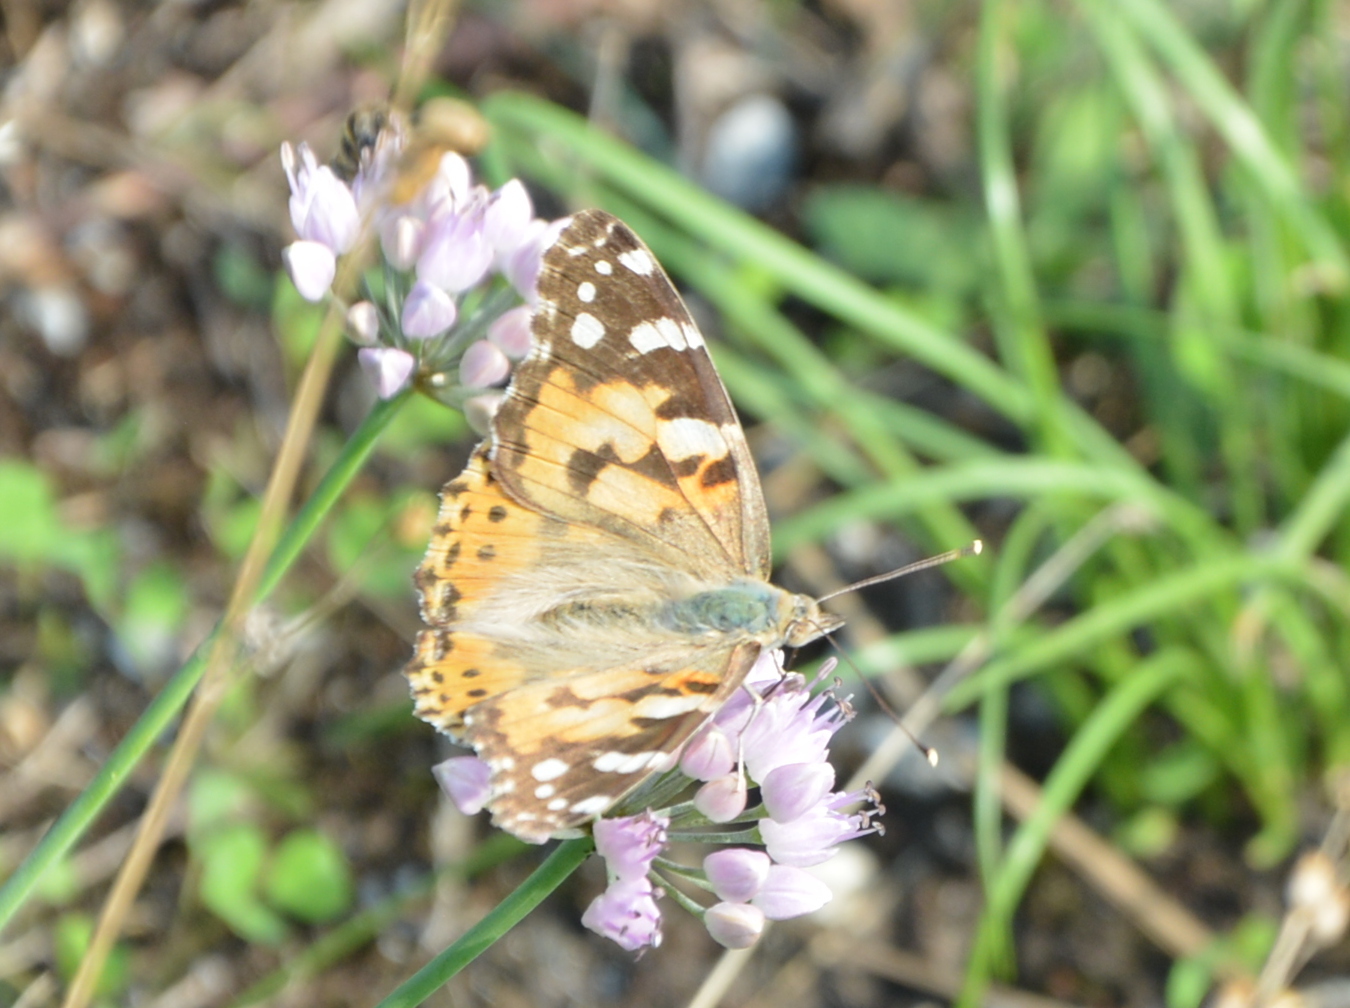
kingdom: Animalia
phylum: Arthropoda
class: Insecta
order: Lepidoptera
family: Nymphalidae
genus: Vanessa
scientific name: Vanessa cardui
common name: Painted lady
